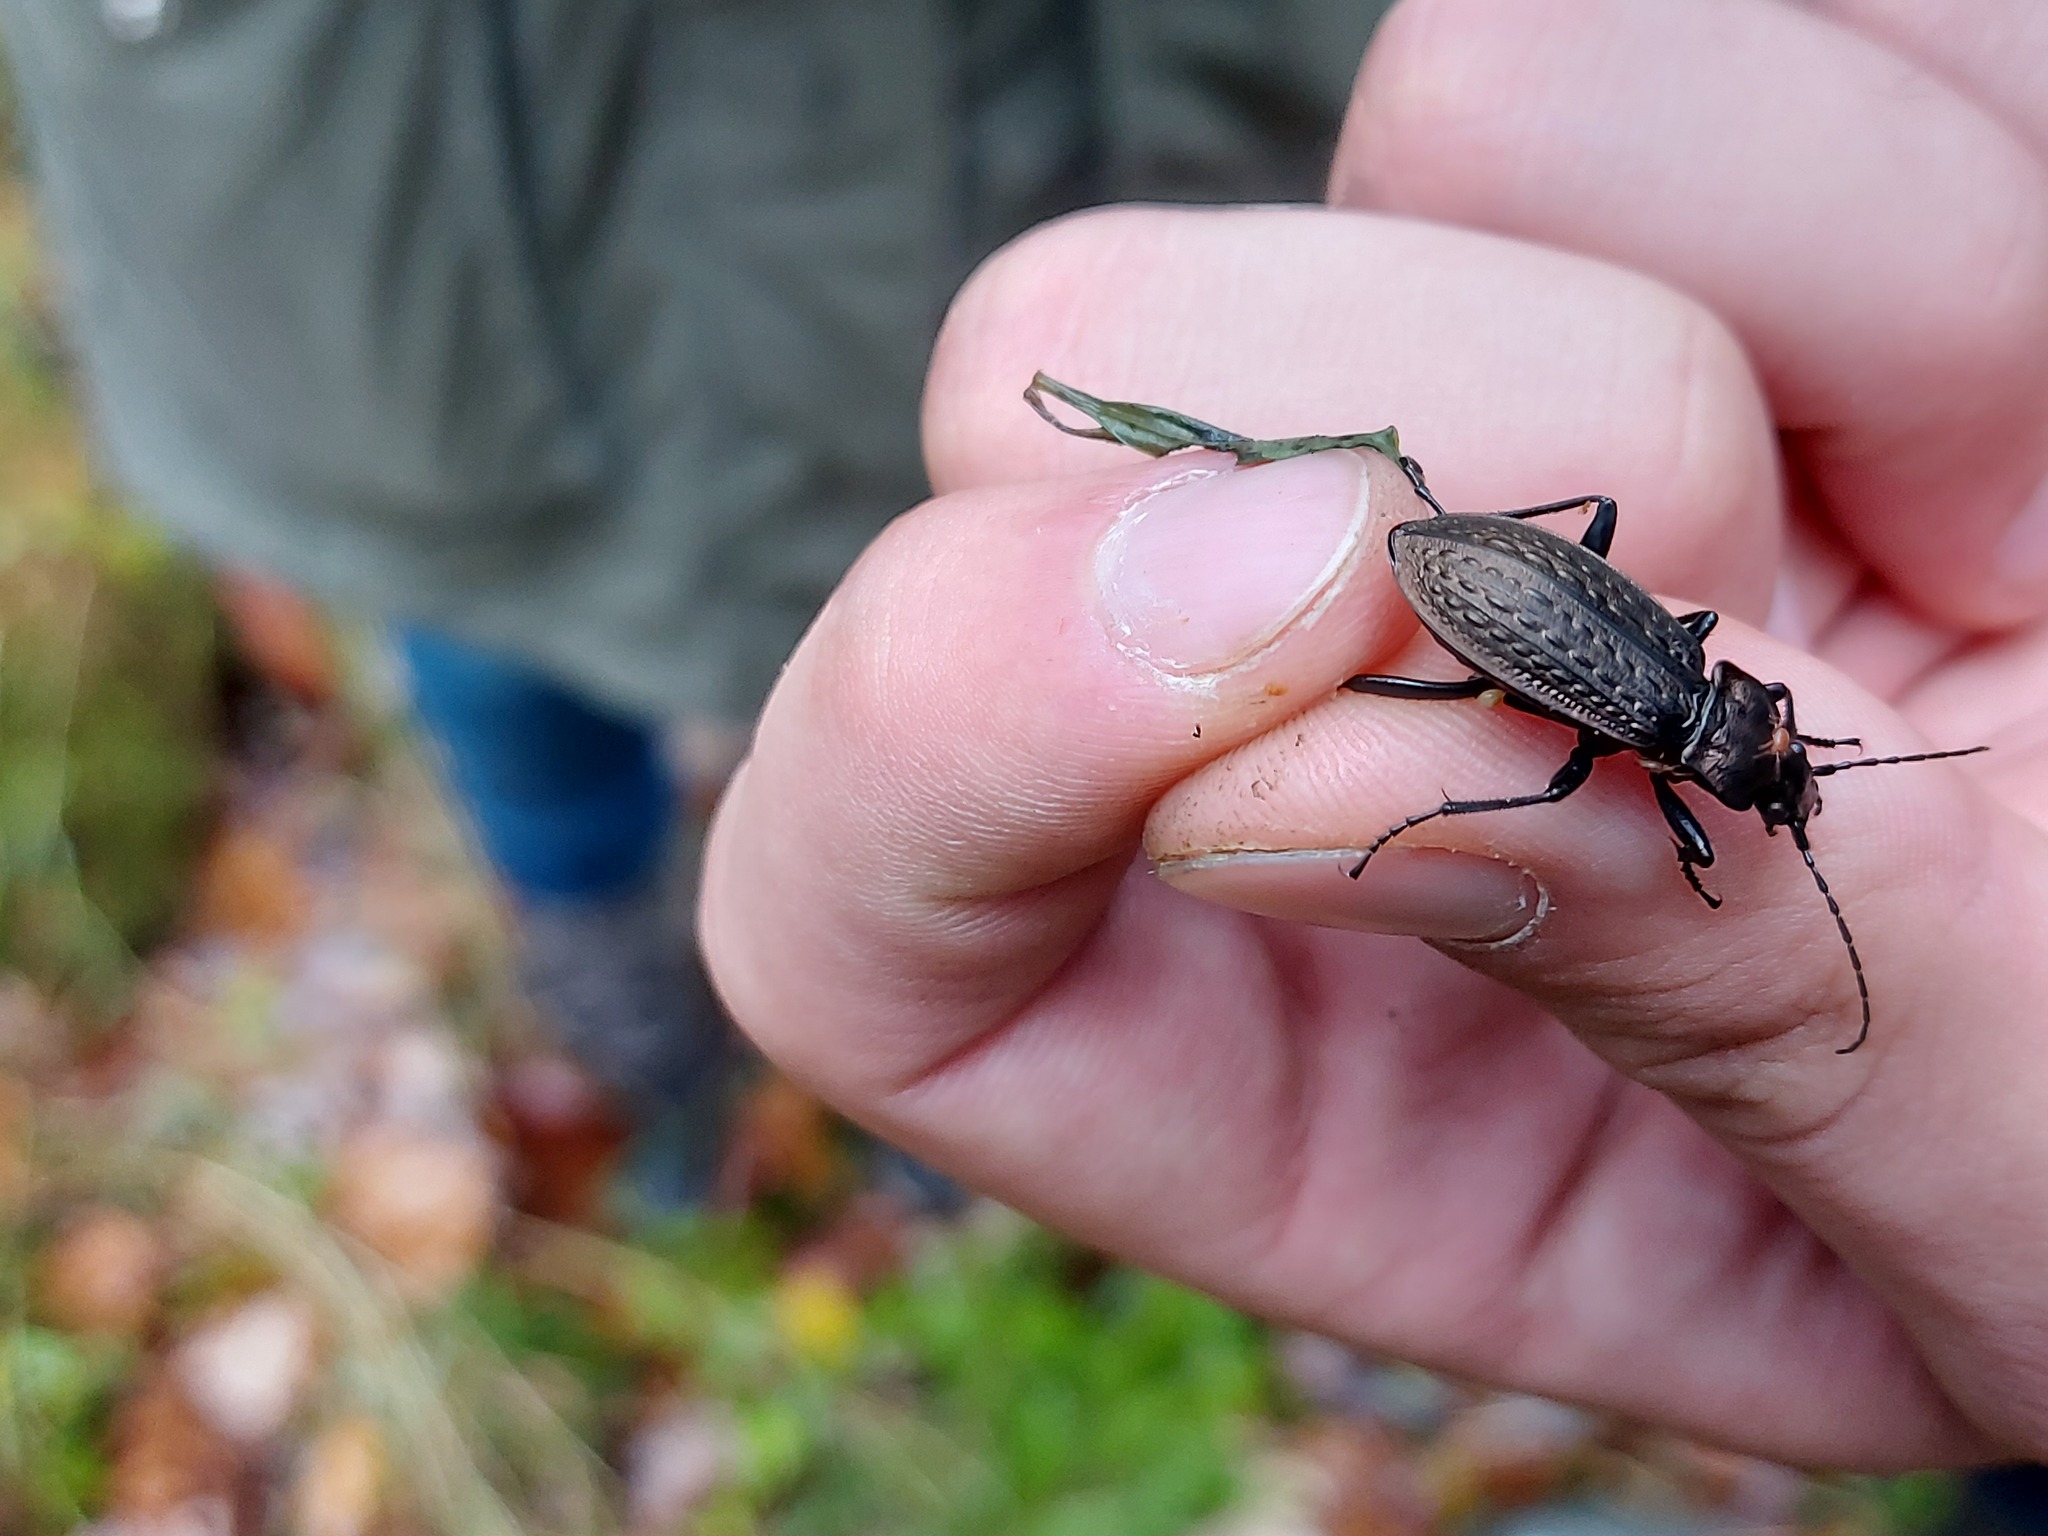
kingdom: Animalia
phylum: Arthropoda
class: Insecta
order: Coleoptera
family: Carabidae
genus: Carabus
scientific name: Carabus granulatus
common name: Granulate ground beetle
